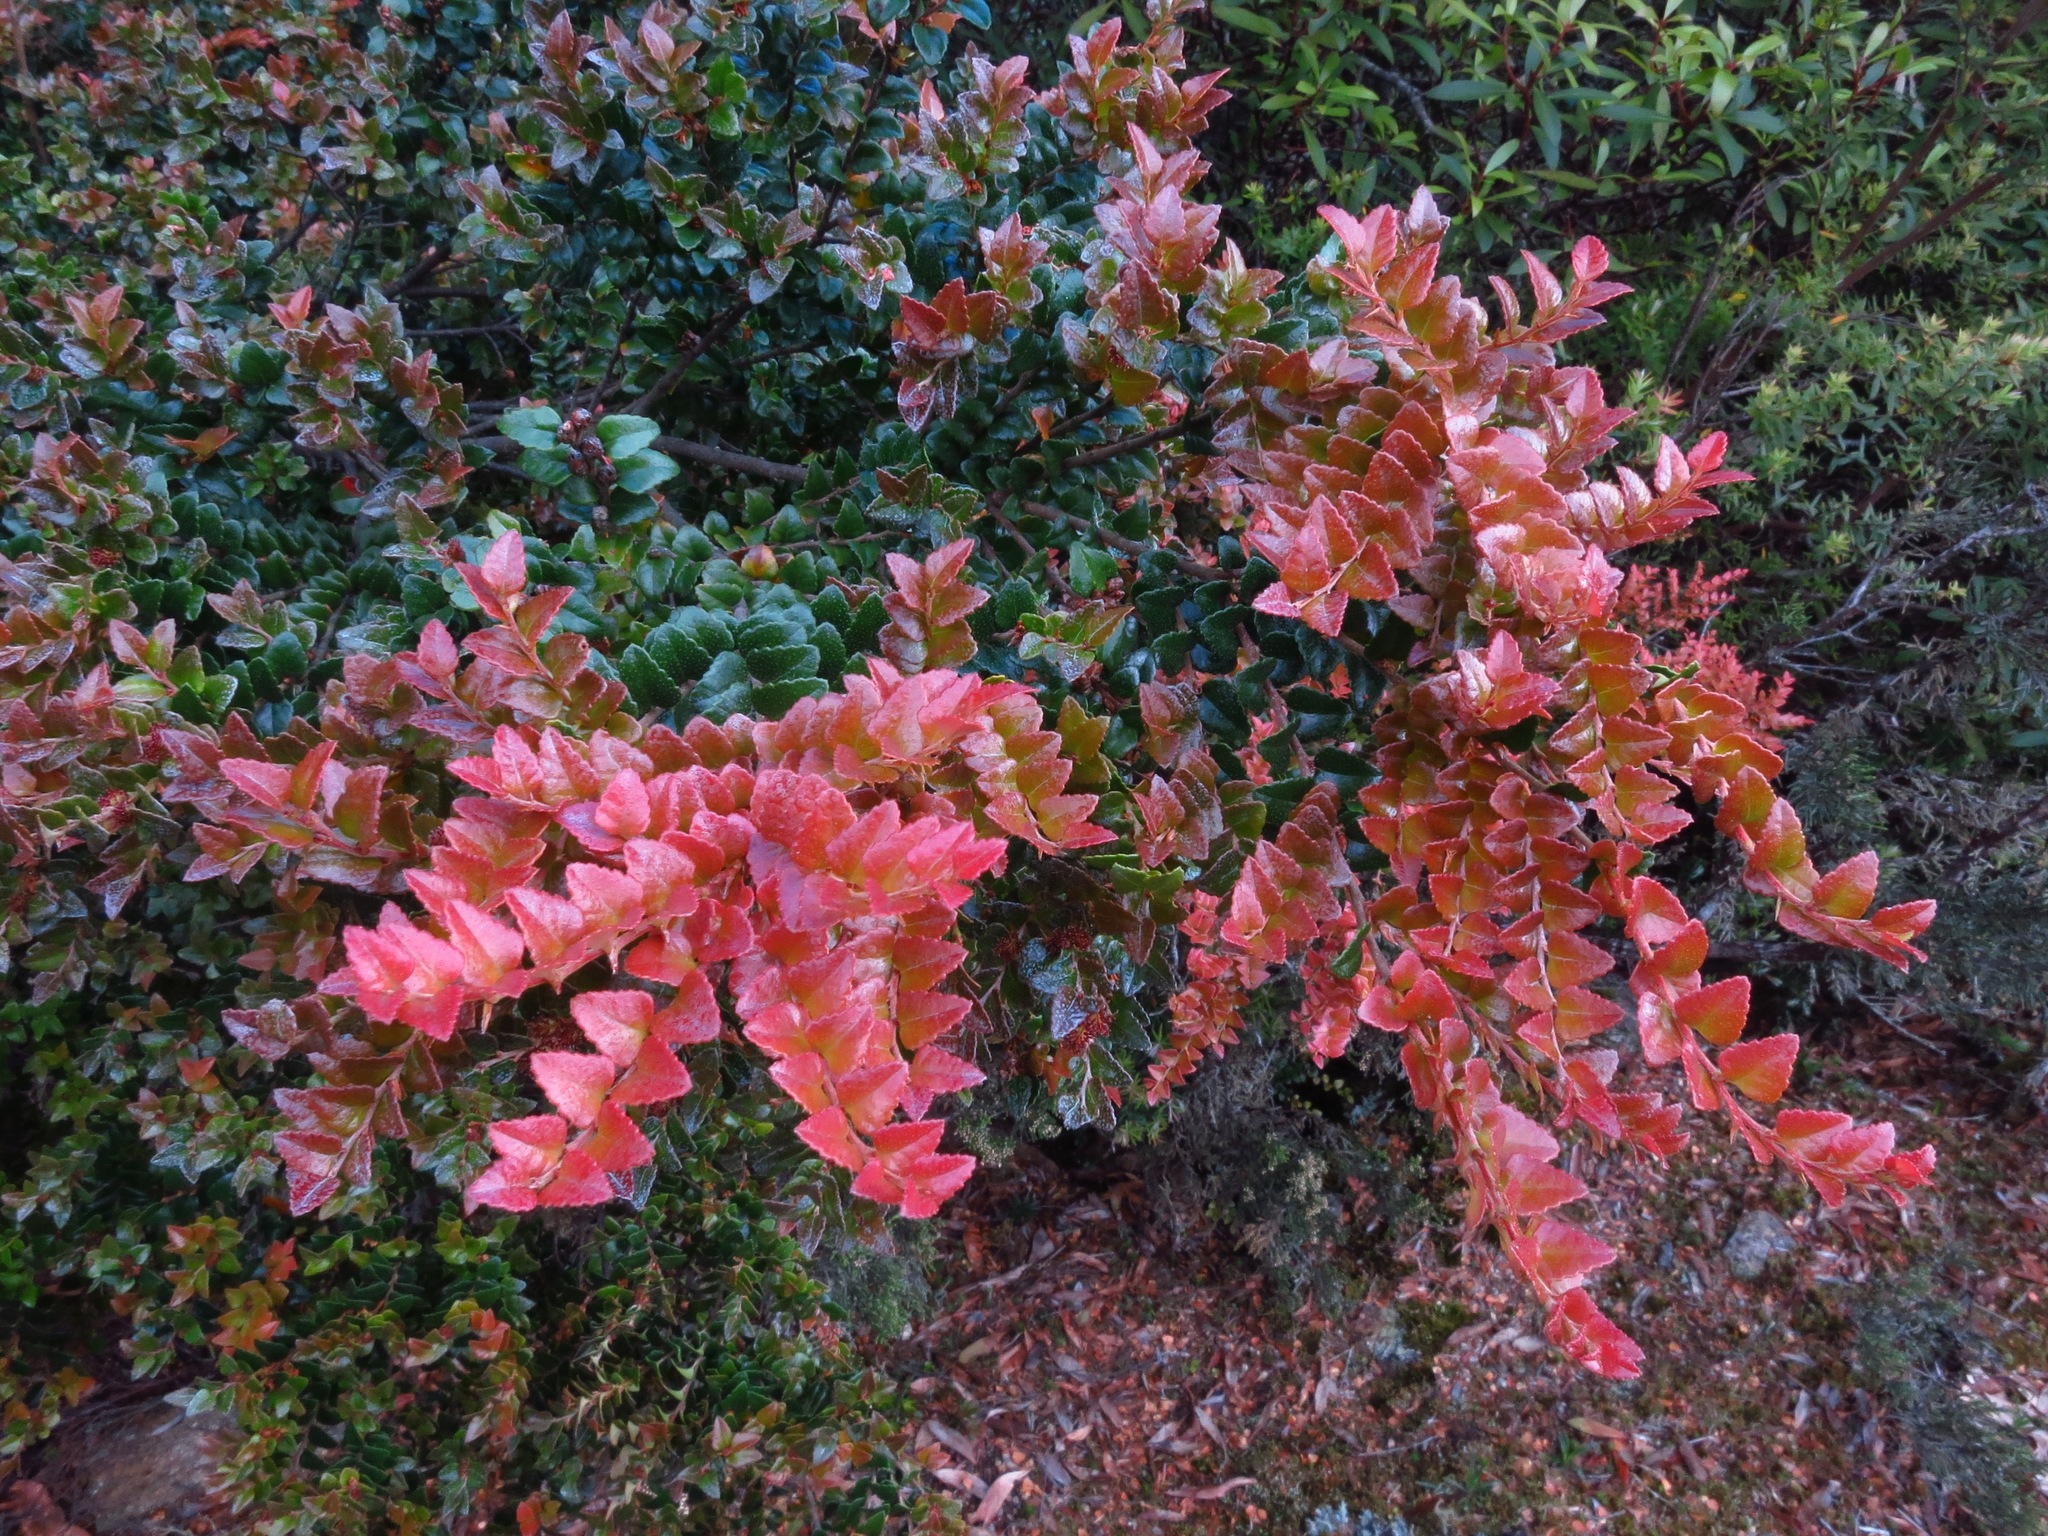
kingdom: Plantae
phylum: Tracheophyta
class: Magnoliopsida
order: Fagales
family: Nothofagaceae
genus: Nothofagus
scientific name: Nothofagus cunninghamii
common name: Myrtle beech
